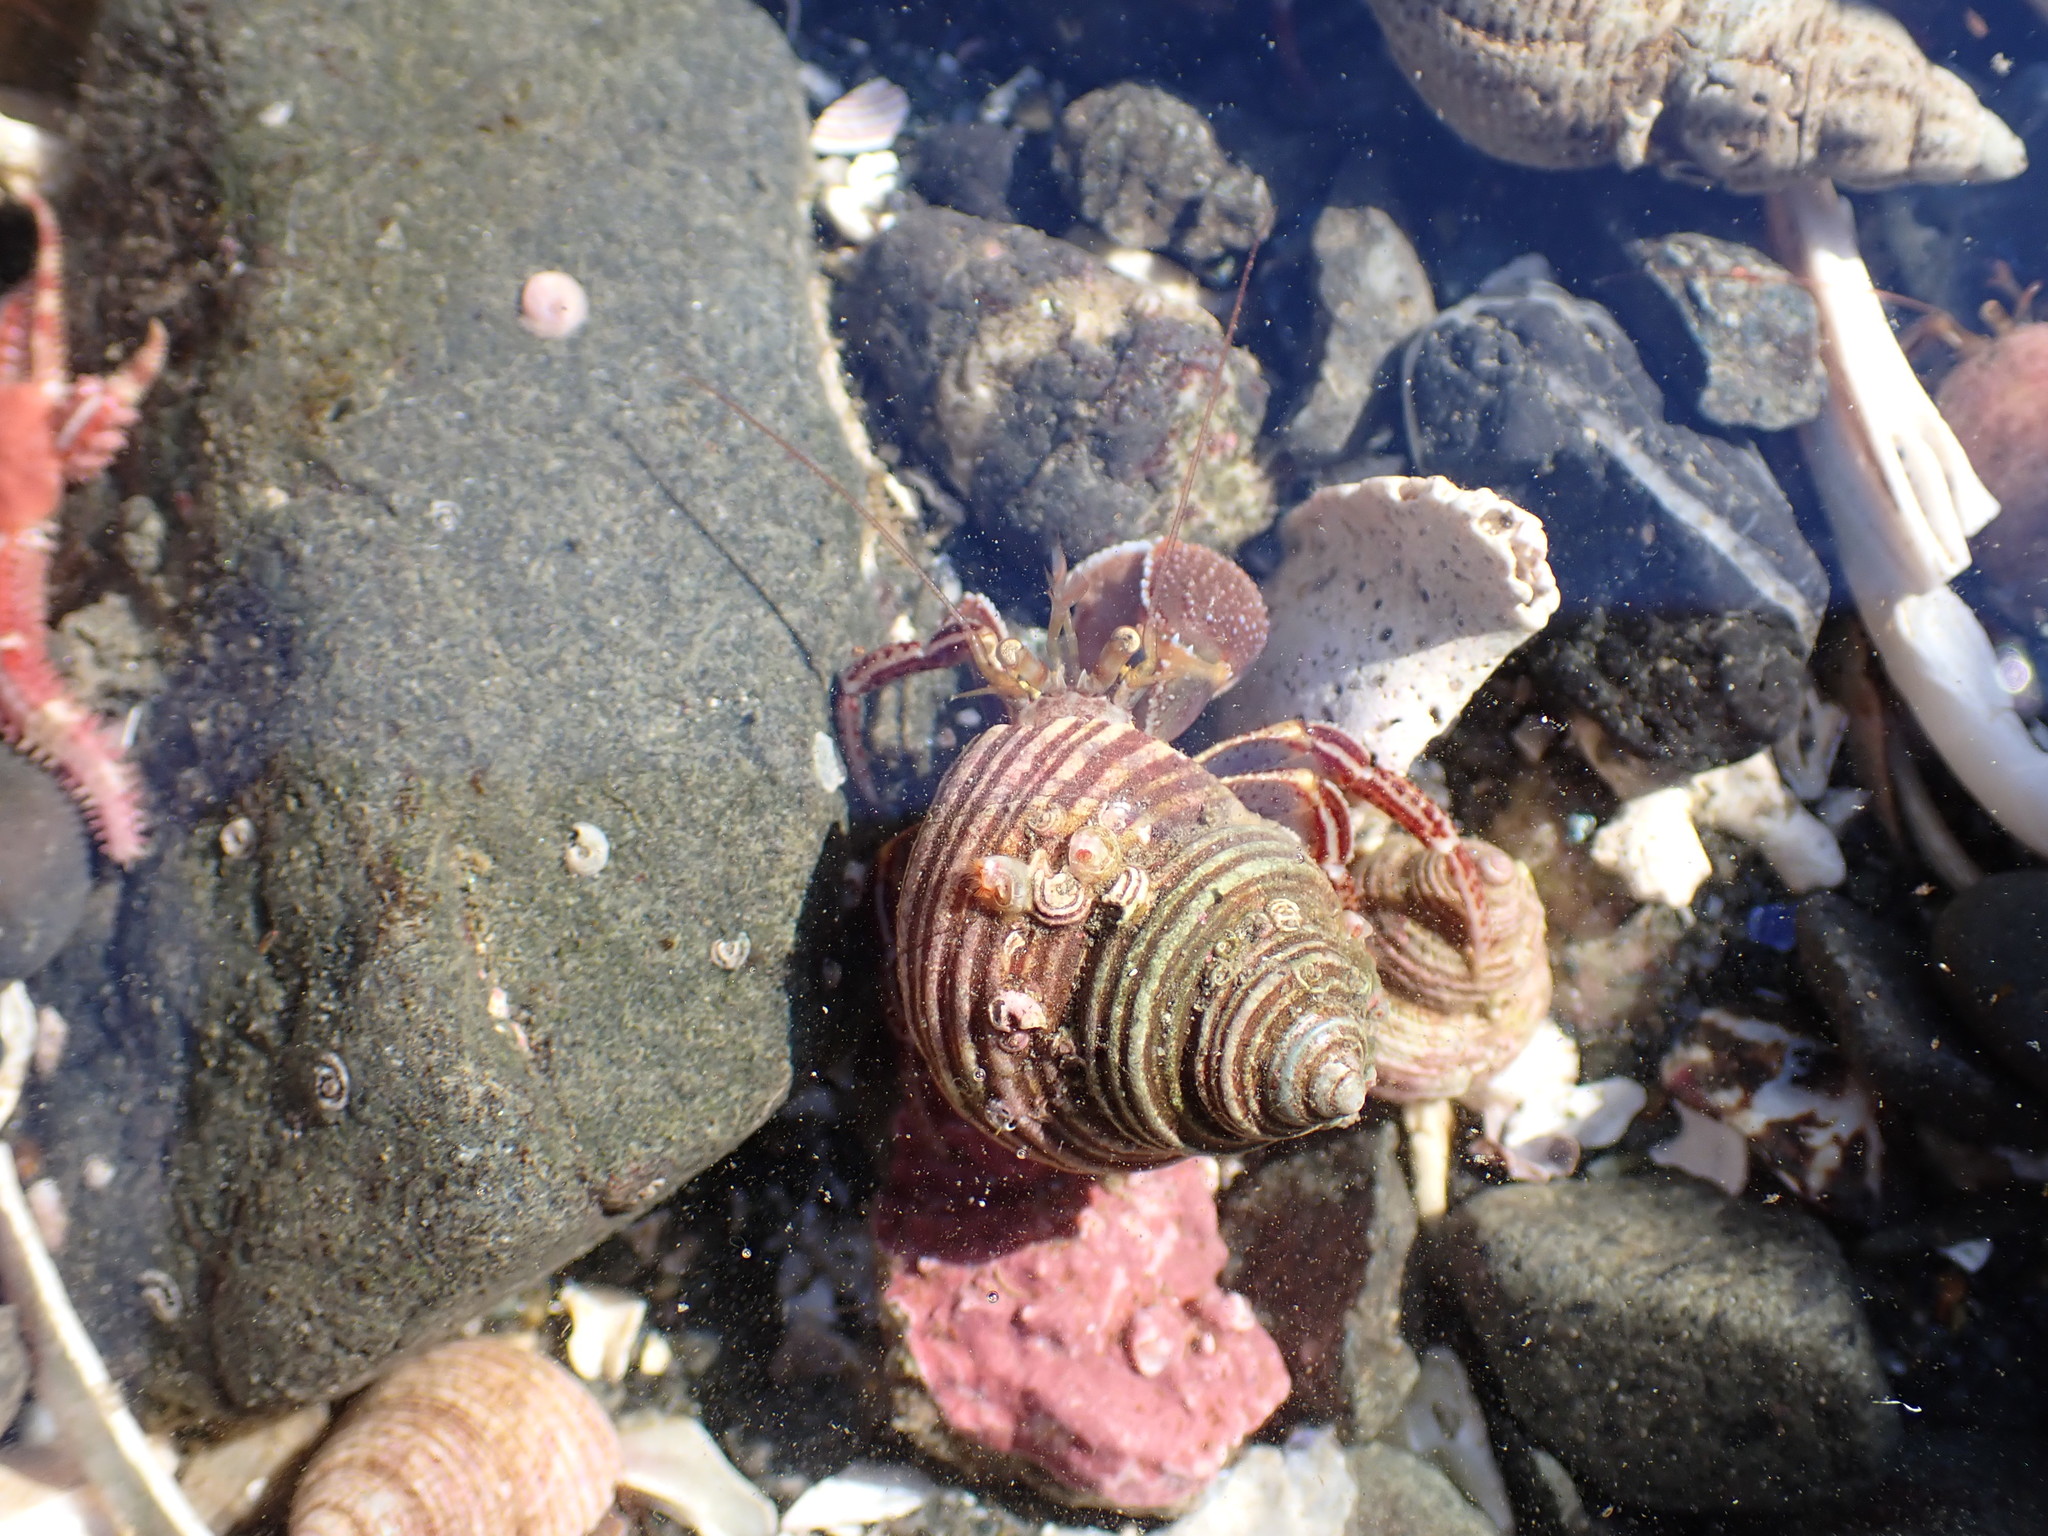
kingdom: Animalia
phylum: Arthropoda
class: Malacostraca
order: Decapoda
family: Paguridae
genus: Elassochirus
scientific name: Elassochirus tenuimanus
